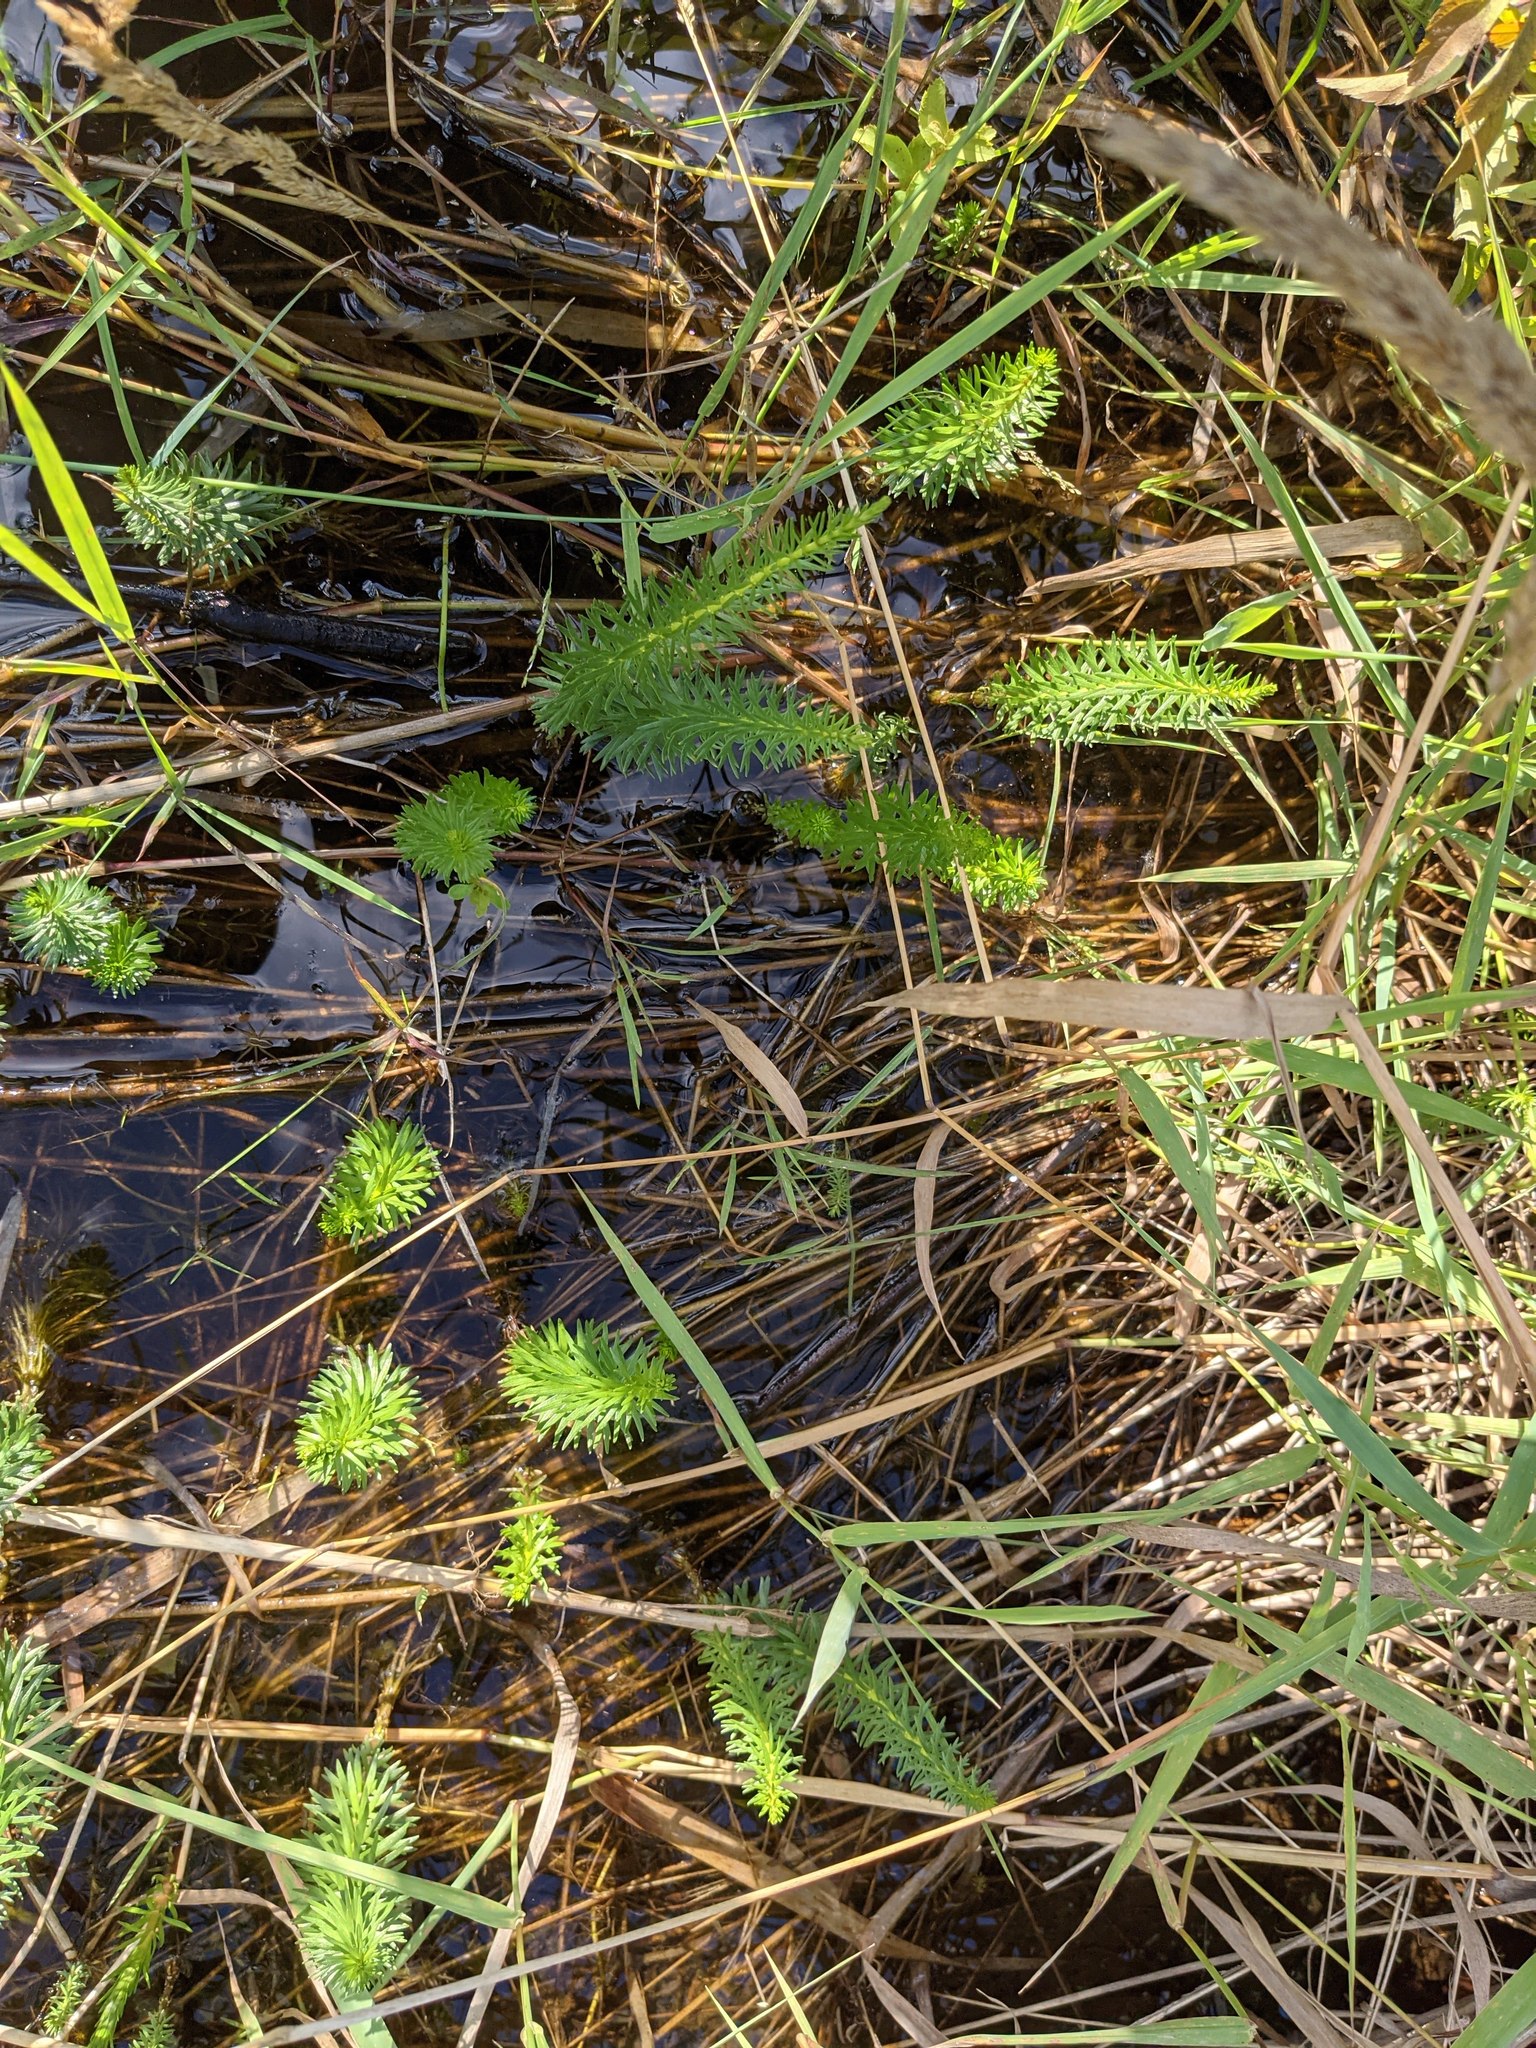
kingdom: Plantae
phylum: Tracheophyta
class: Magnoliopsida
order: Lamiales
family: Plantaginaceae
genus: Hippuris
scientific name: Hippuris vulgaris
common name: Mare's-tail
